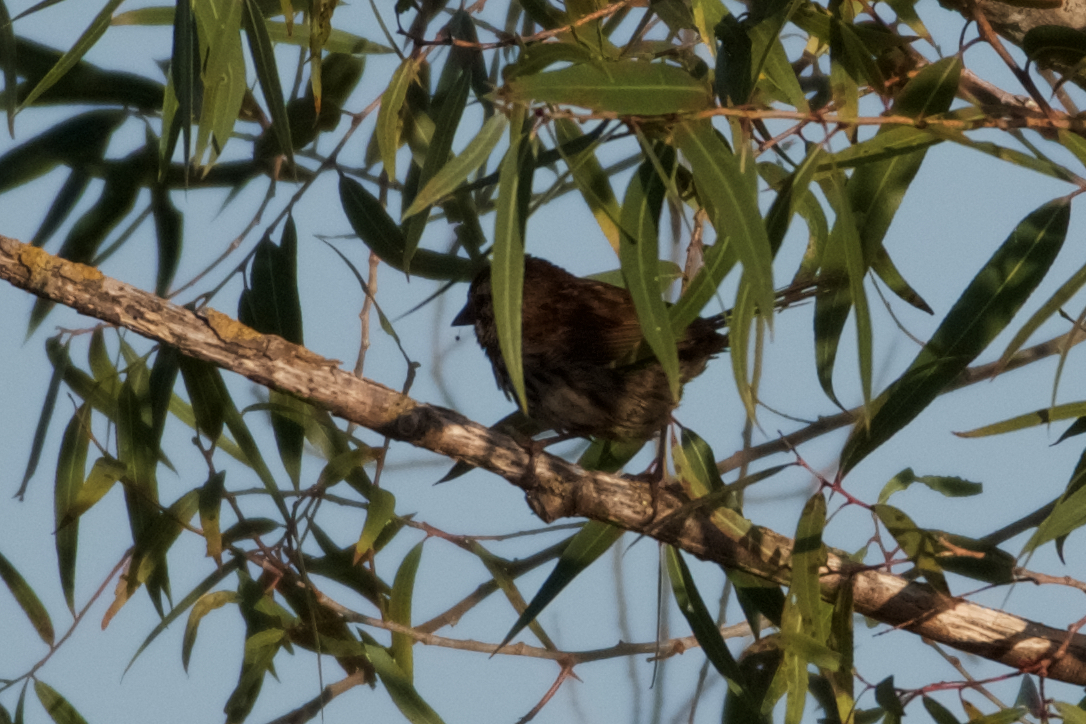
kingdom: Animalia
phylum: Chordata
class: Aves
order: Passeriformes
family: Passerellidae
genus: Melospiza
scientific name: Melospiza melodia
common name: Song sparrow
